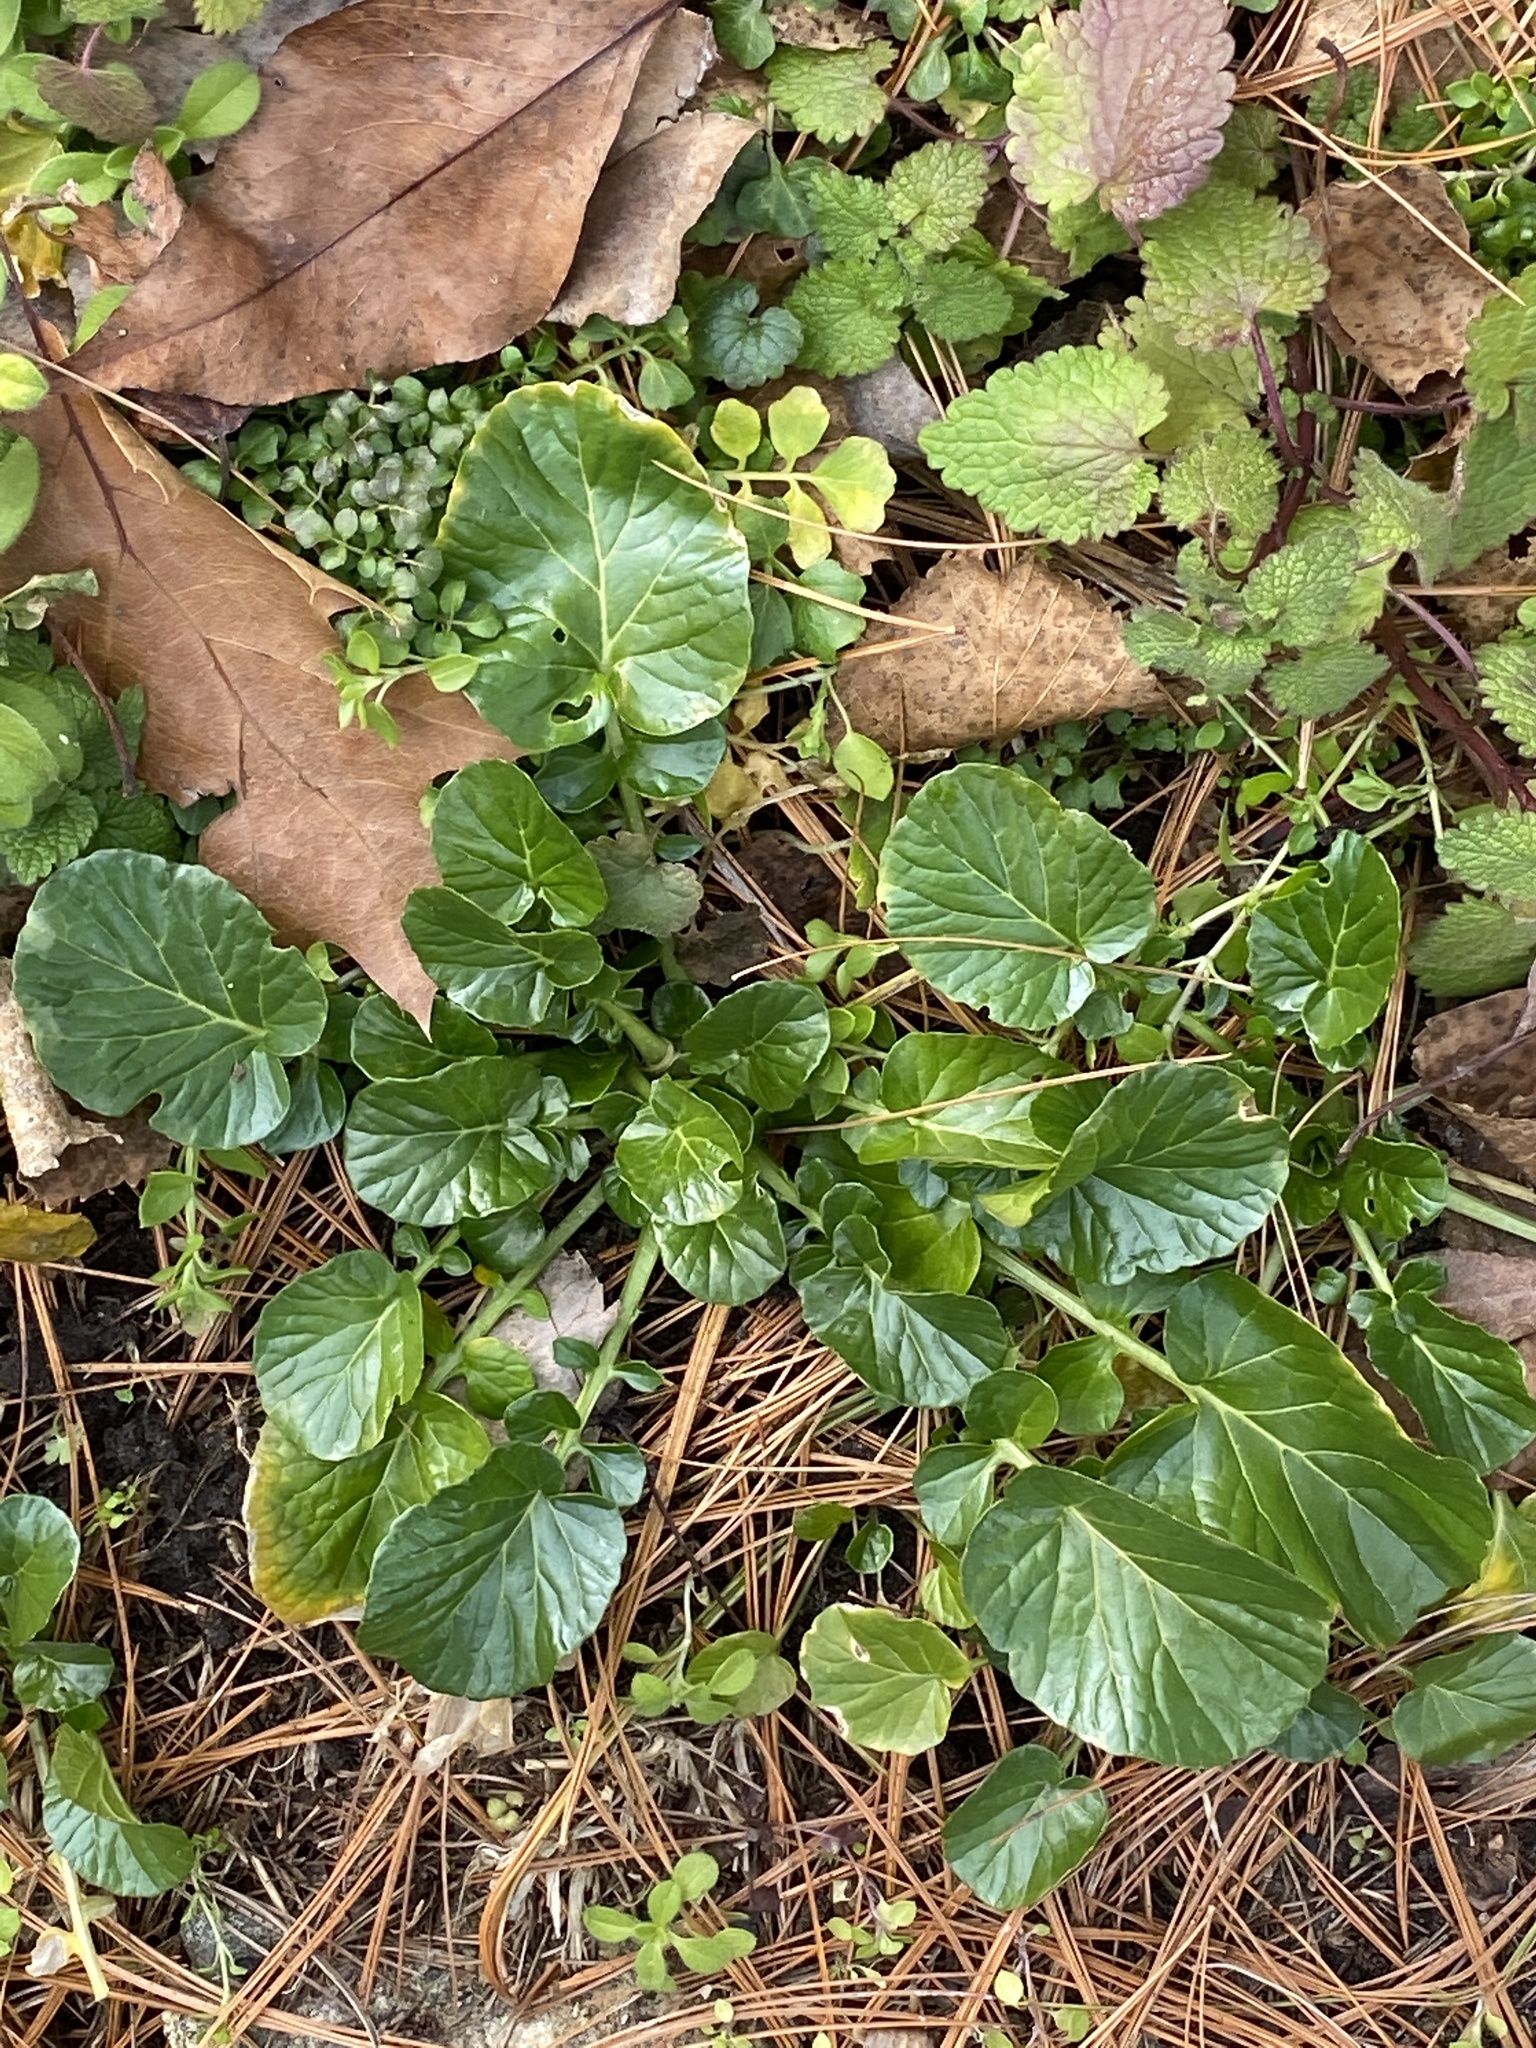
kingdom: Plantae
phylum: Tracheophyta
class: Magnoliopsida
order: Brassicales
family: Brassicaceae
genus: Barbarea
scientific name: Barbarea vulgaris
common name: Cressy-greens
